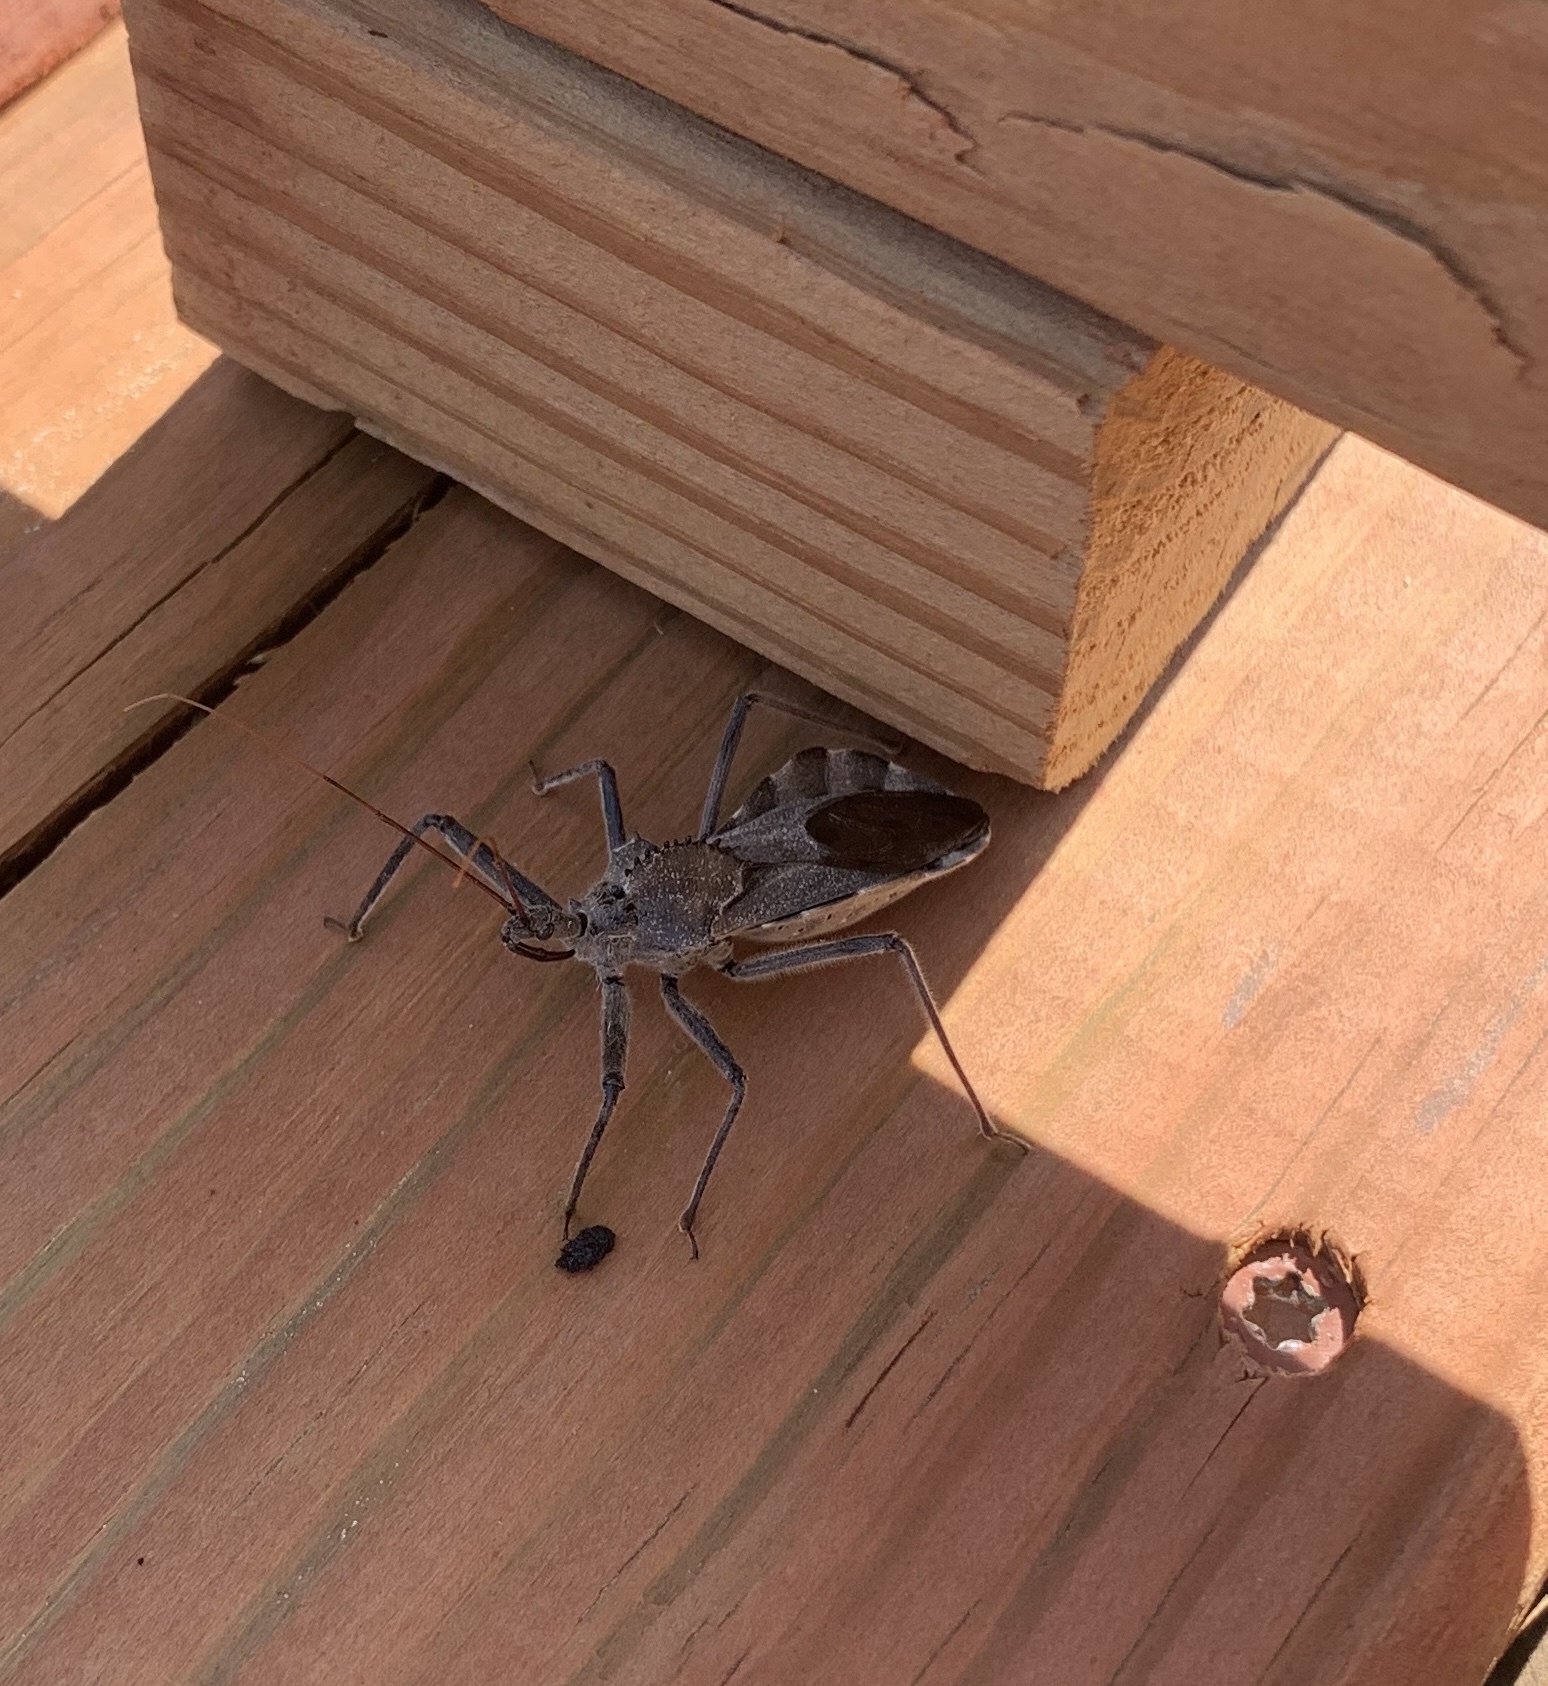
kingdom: Animalia
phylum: Arthropoda
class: Insecta
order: Hemiptera
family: Reduviidae
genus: Arilus
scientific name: Arilus cristatus
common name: North american wheel bug
